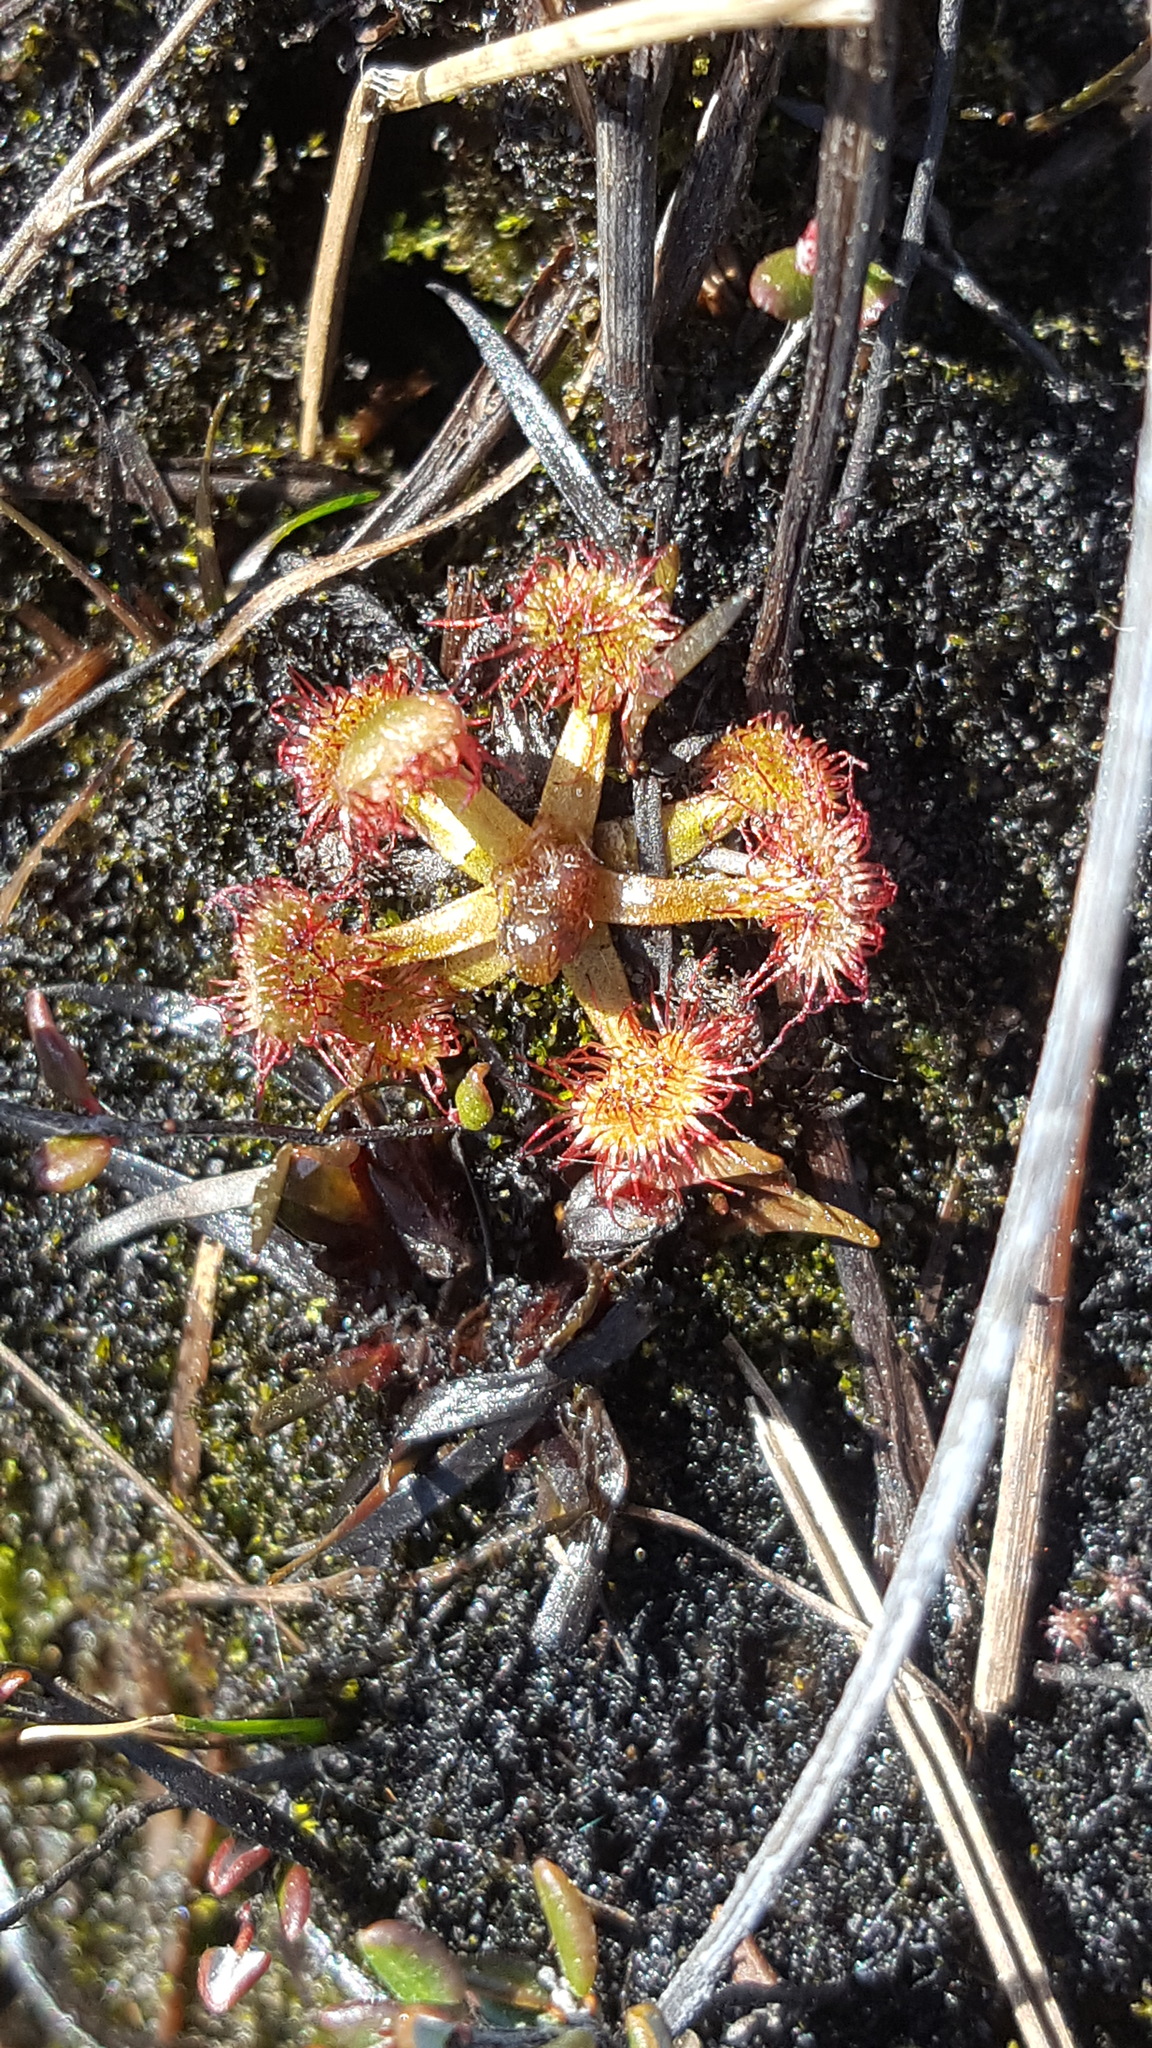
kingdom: Plantae
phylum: Tracheophyta
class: Magnoliopsida
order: Caryophyllales
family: Droseraceae
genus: Drosera
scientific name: Drosera rotundifolia
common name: Round-leaved sundew
